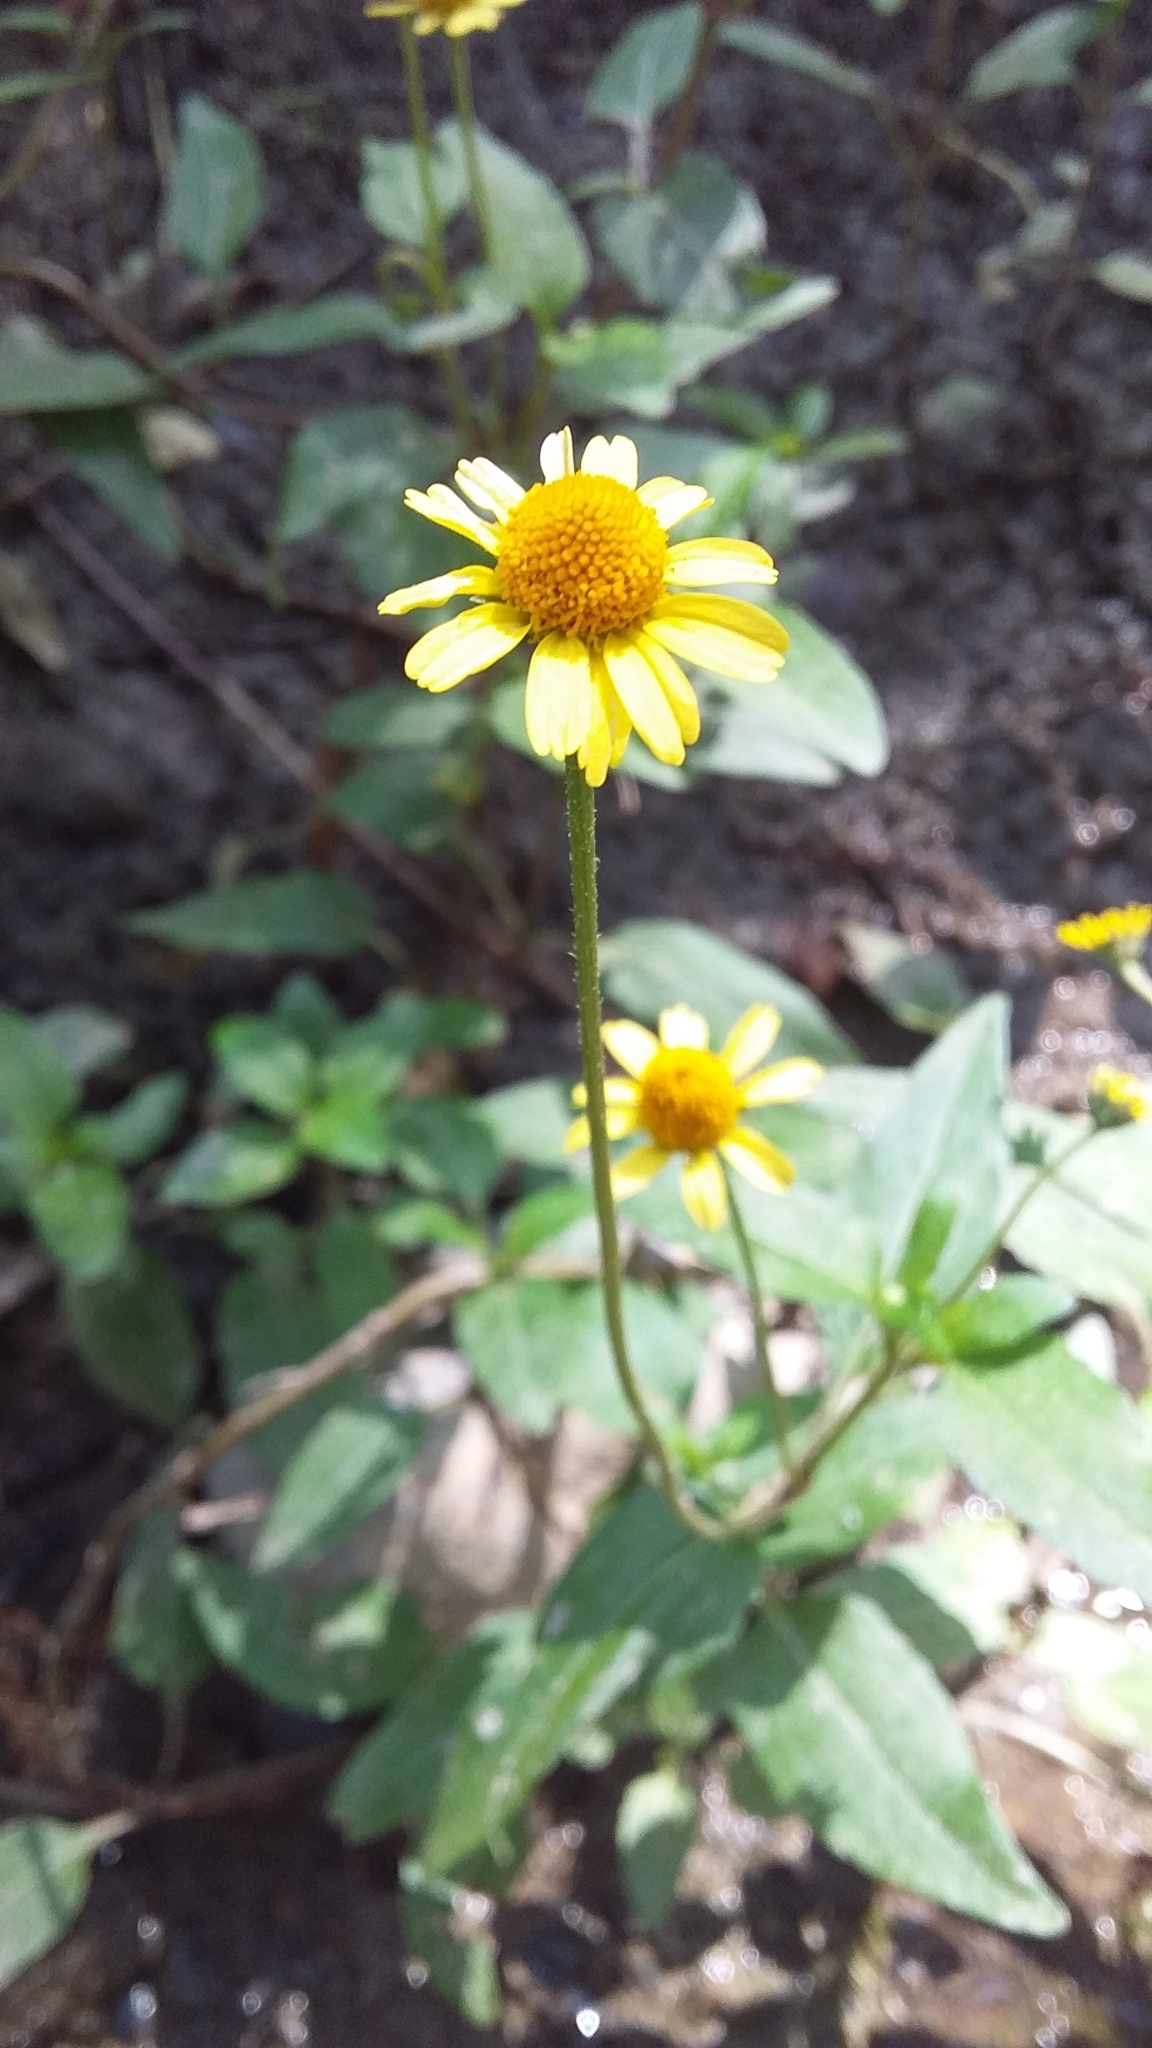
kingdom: Plantae
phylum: Tracheophyta
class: Magnoliopsida
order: Asterales
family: Asteraceae
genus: Acmella
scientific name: Acmella repens
